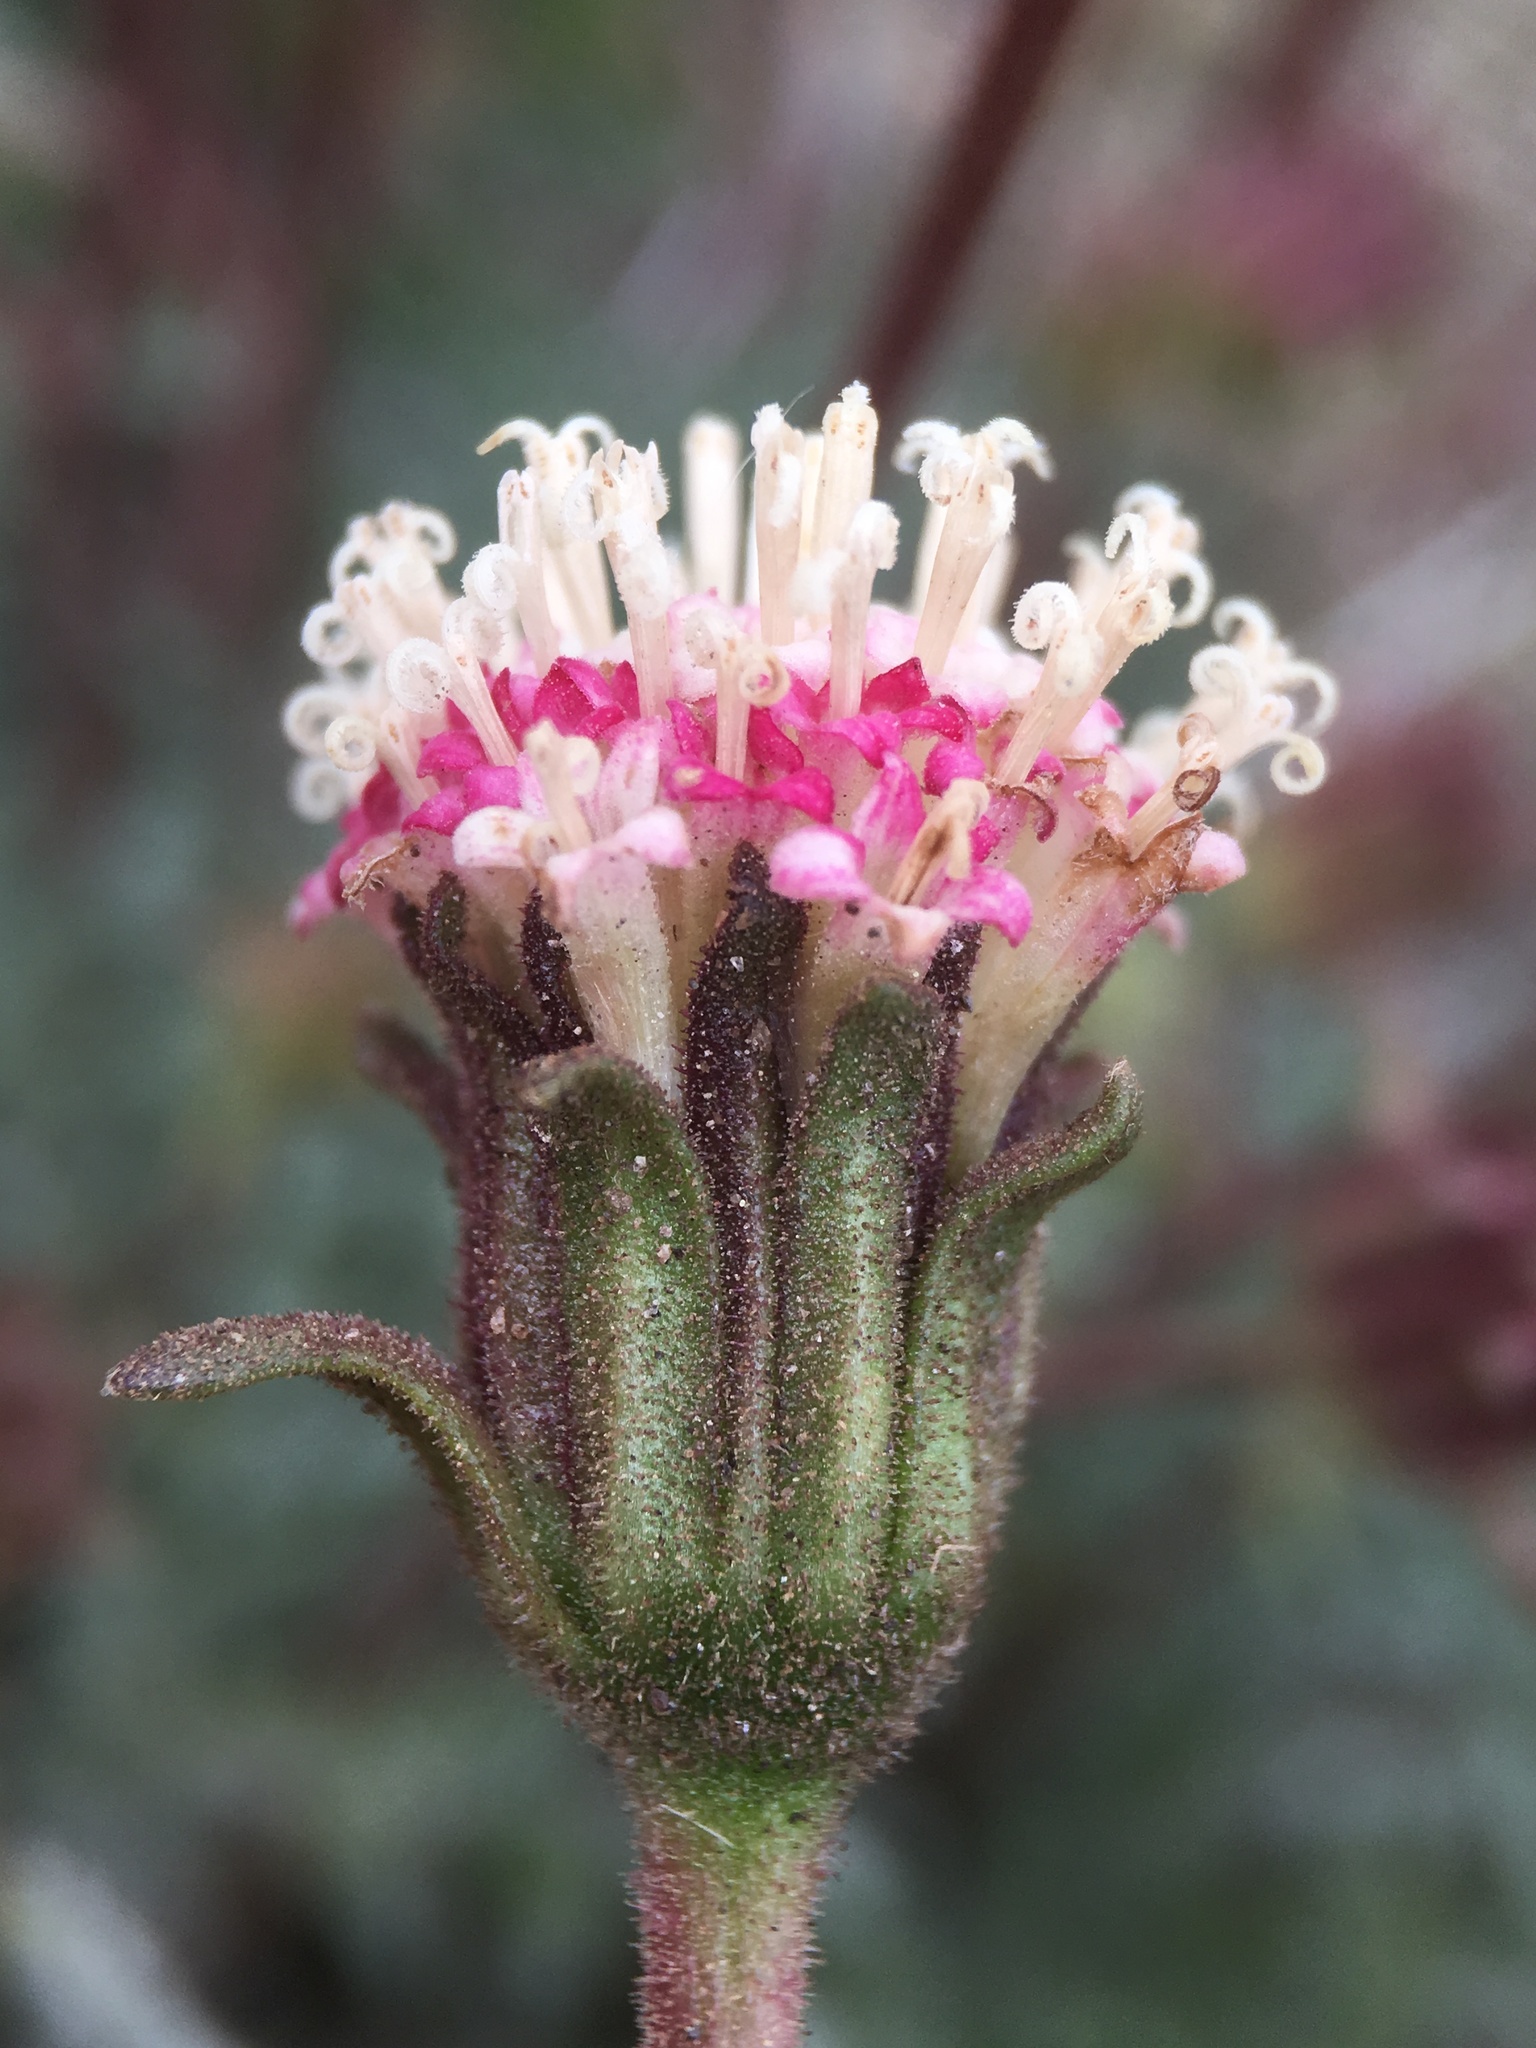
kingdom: Plantae
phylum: Tracheophyta
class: Magnoliopsida
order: Asterales
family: Asteraceae
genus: Chaenactis
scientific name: Chaenactis santolinoides
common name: Santolina pincushion
